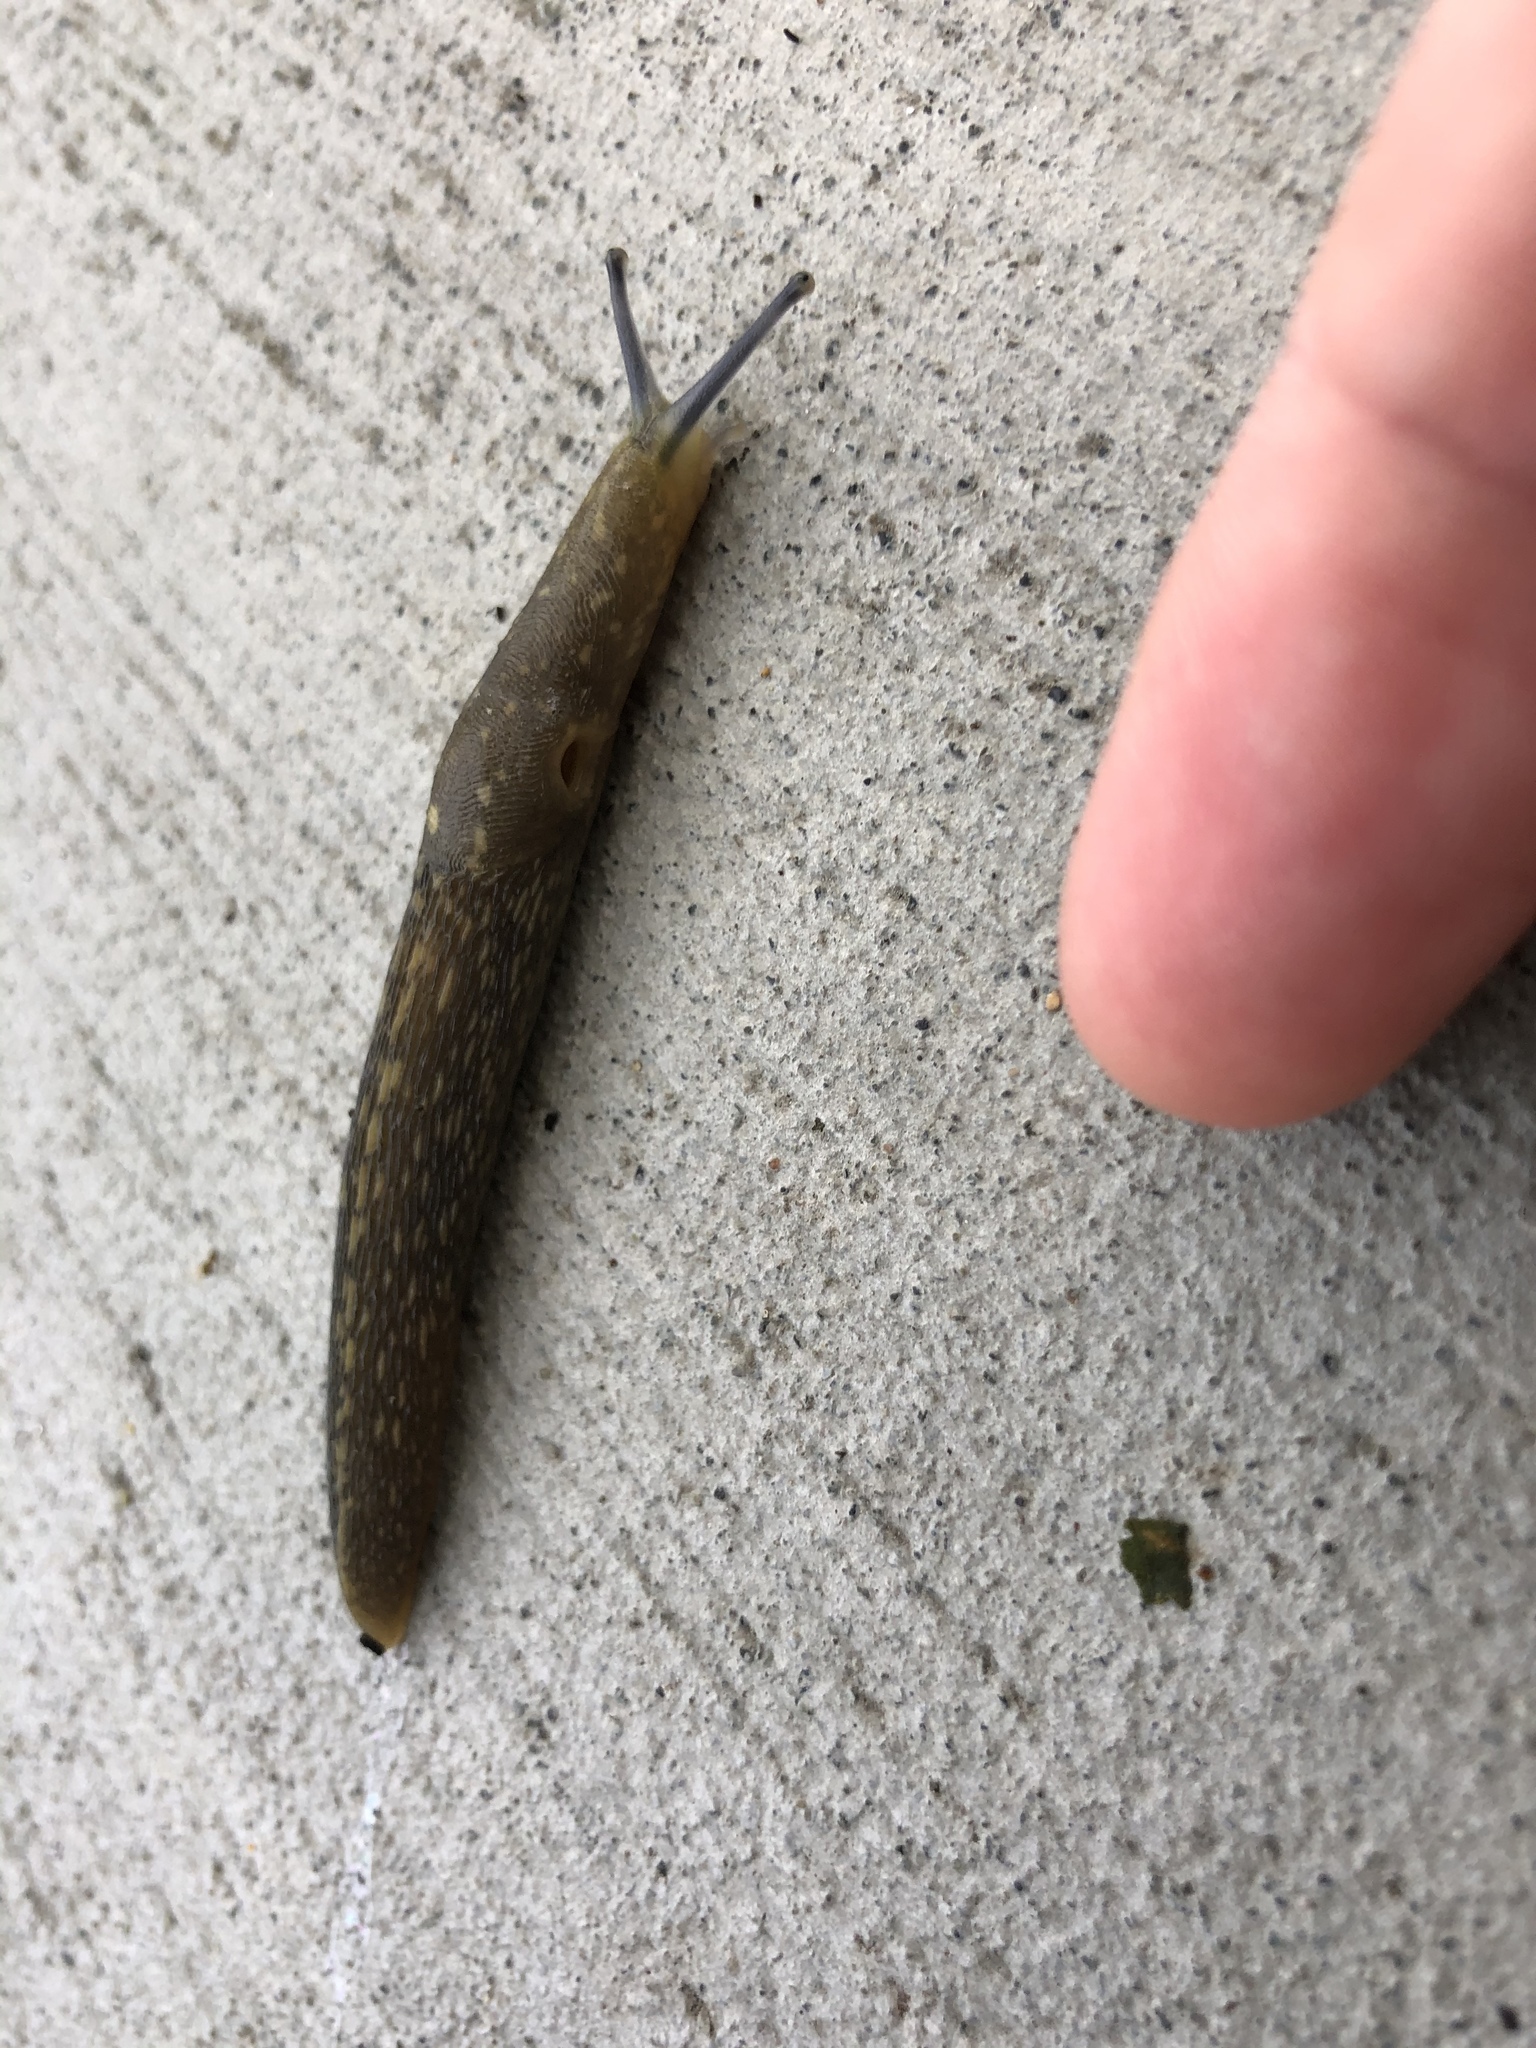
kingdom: Animalia
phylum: Mollusca
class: Gastropoda
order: Stylommatophora
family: Limacidae
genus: Limacus
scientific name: Limacus flavus
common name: Yellow gardenslug
